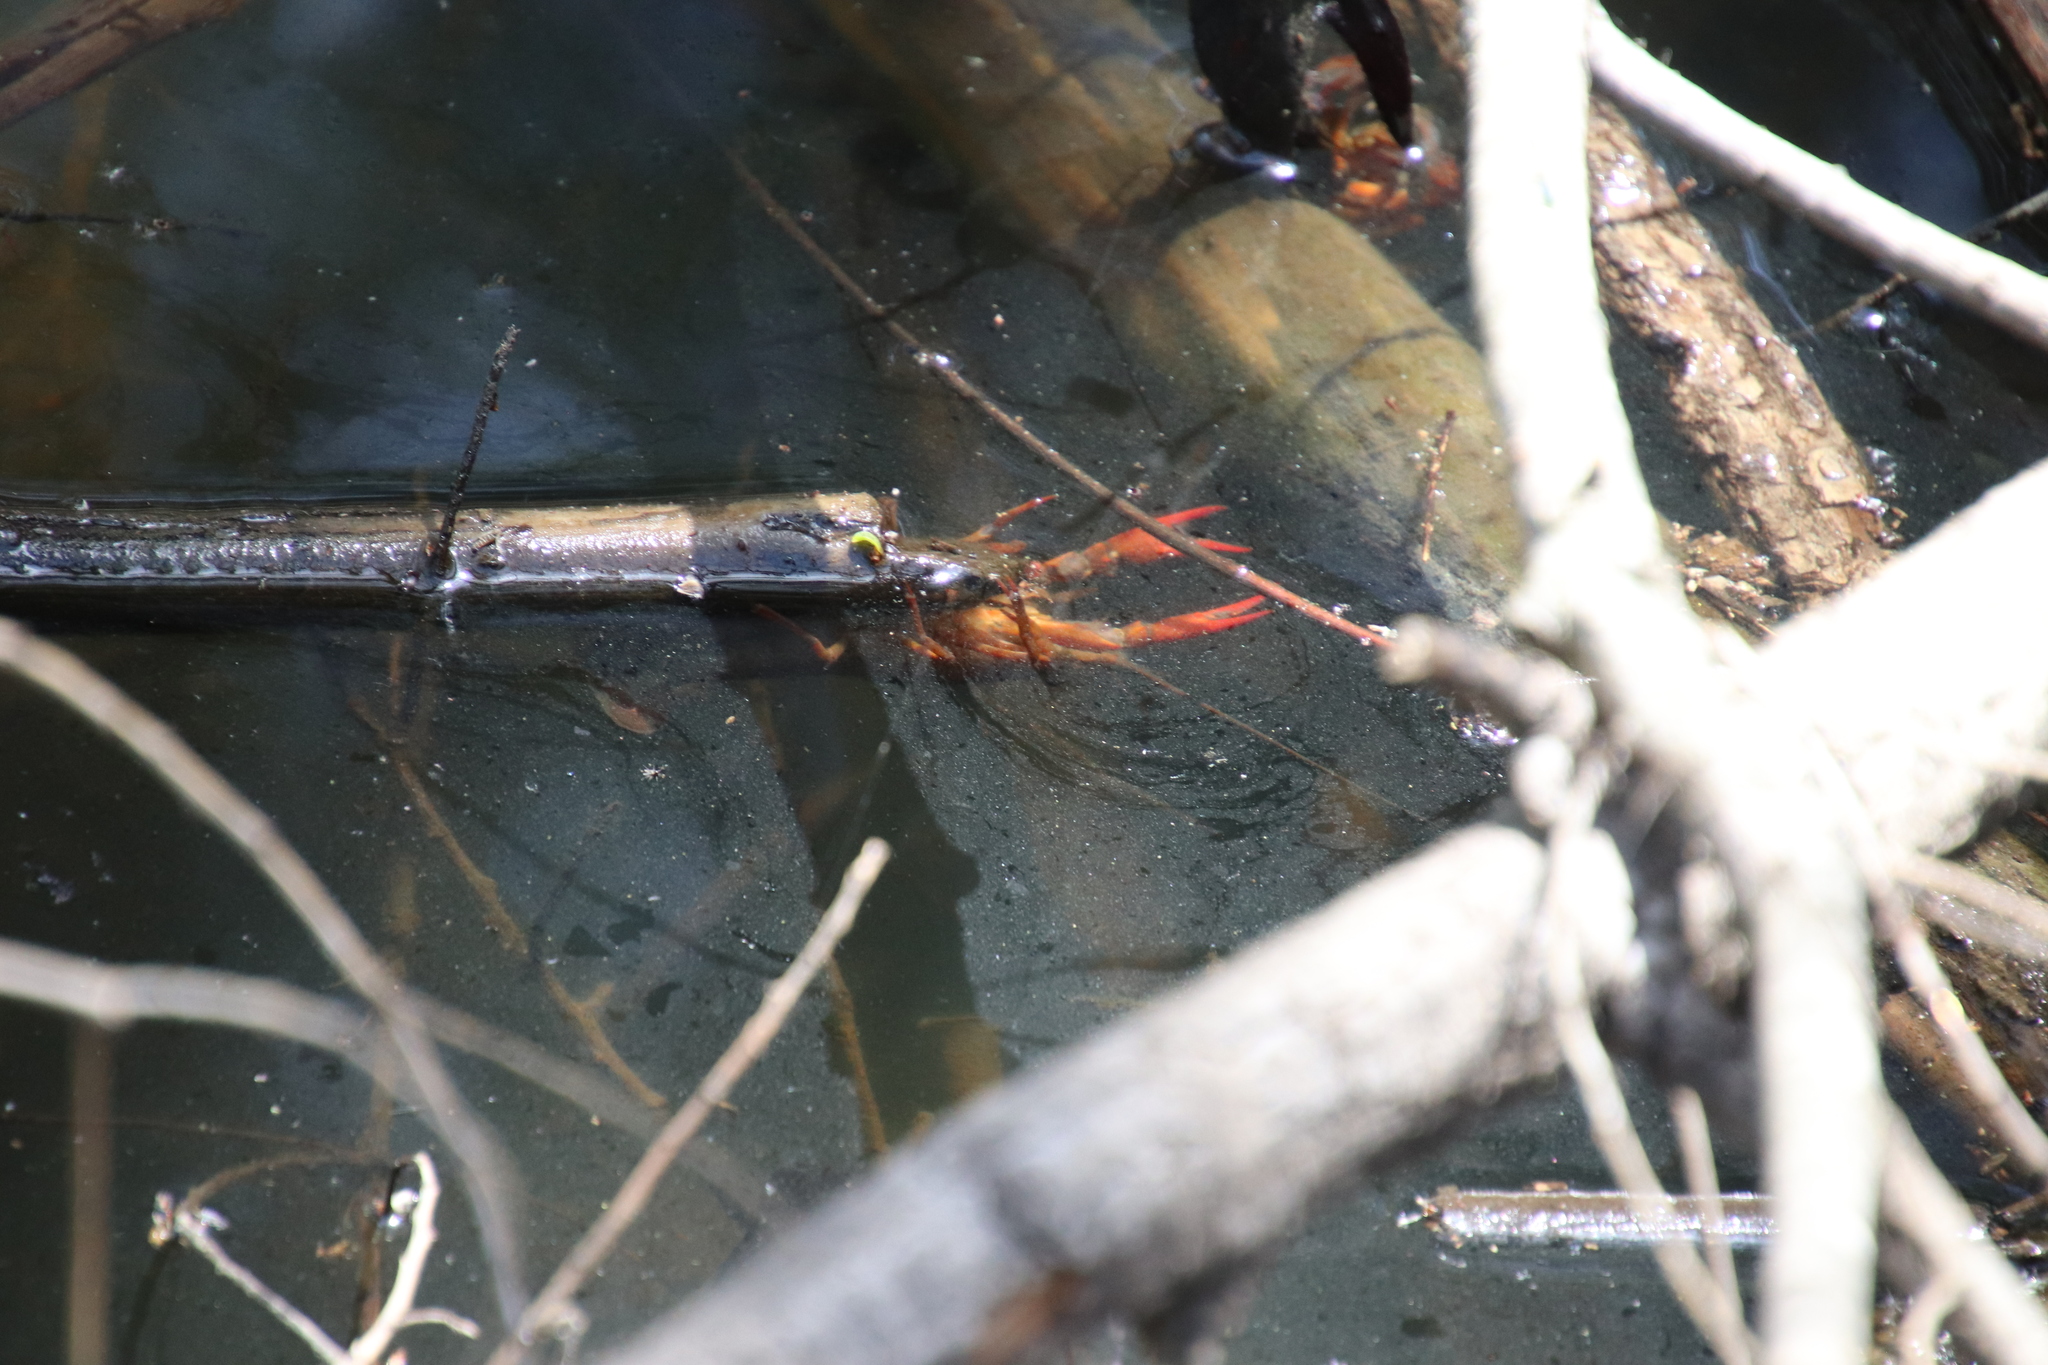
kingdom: Animalia
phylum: Arthropoda
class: Malacostraca
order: Decapoda
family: Cambaridae
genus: Procambarus
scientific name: Procambarus clarkii
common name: Red swamp crayfish
